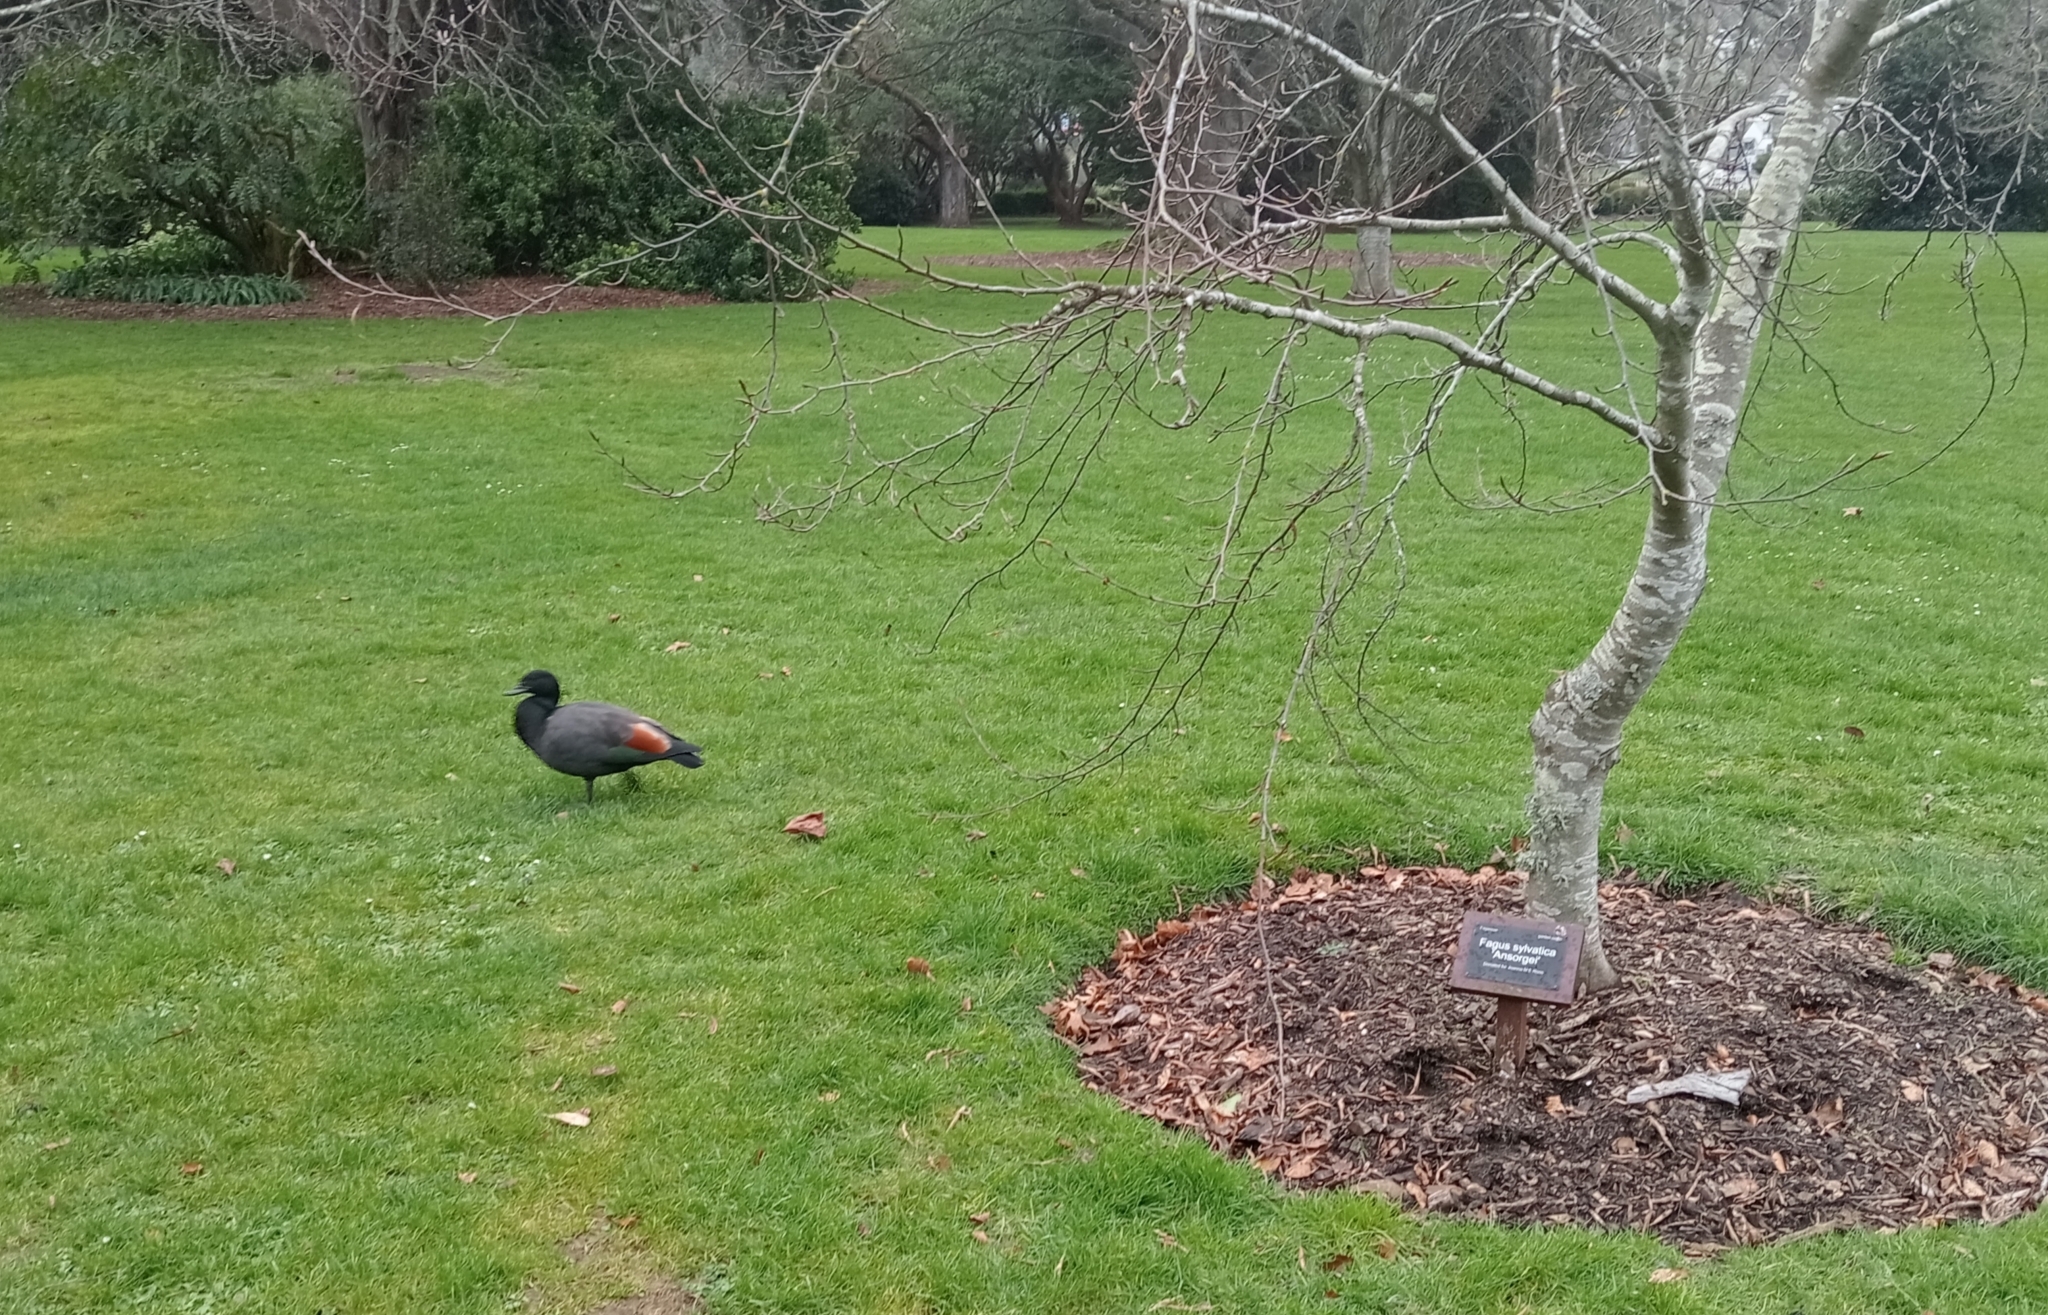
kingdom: Animalia
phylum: Chordata
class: Aves
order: Anseriformes
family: Anatidae
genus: Tadorna
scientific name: Tadorna variegata
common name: Paradise shelduck
